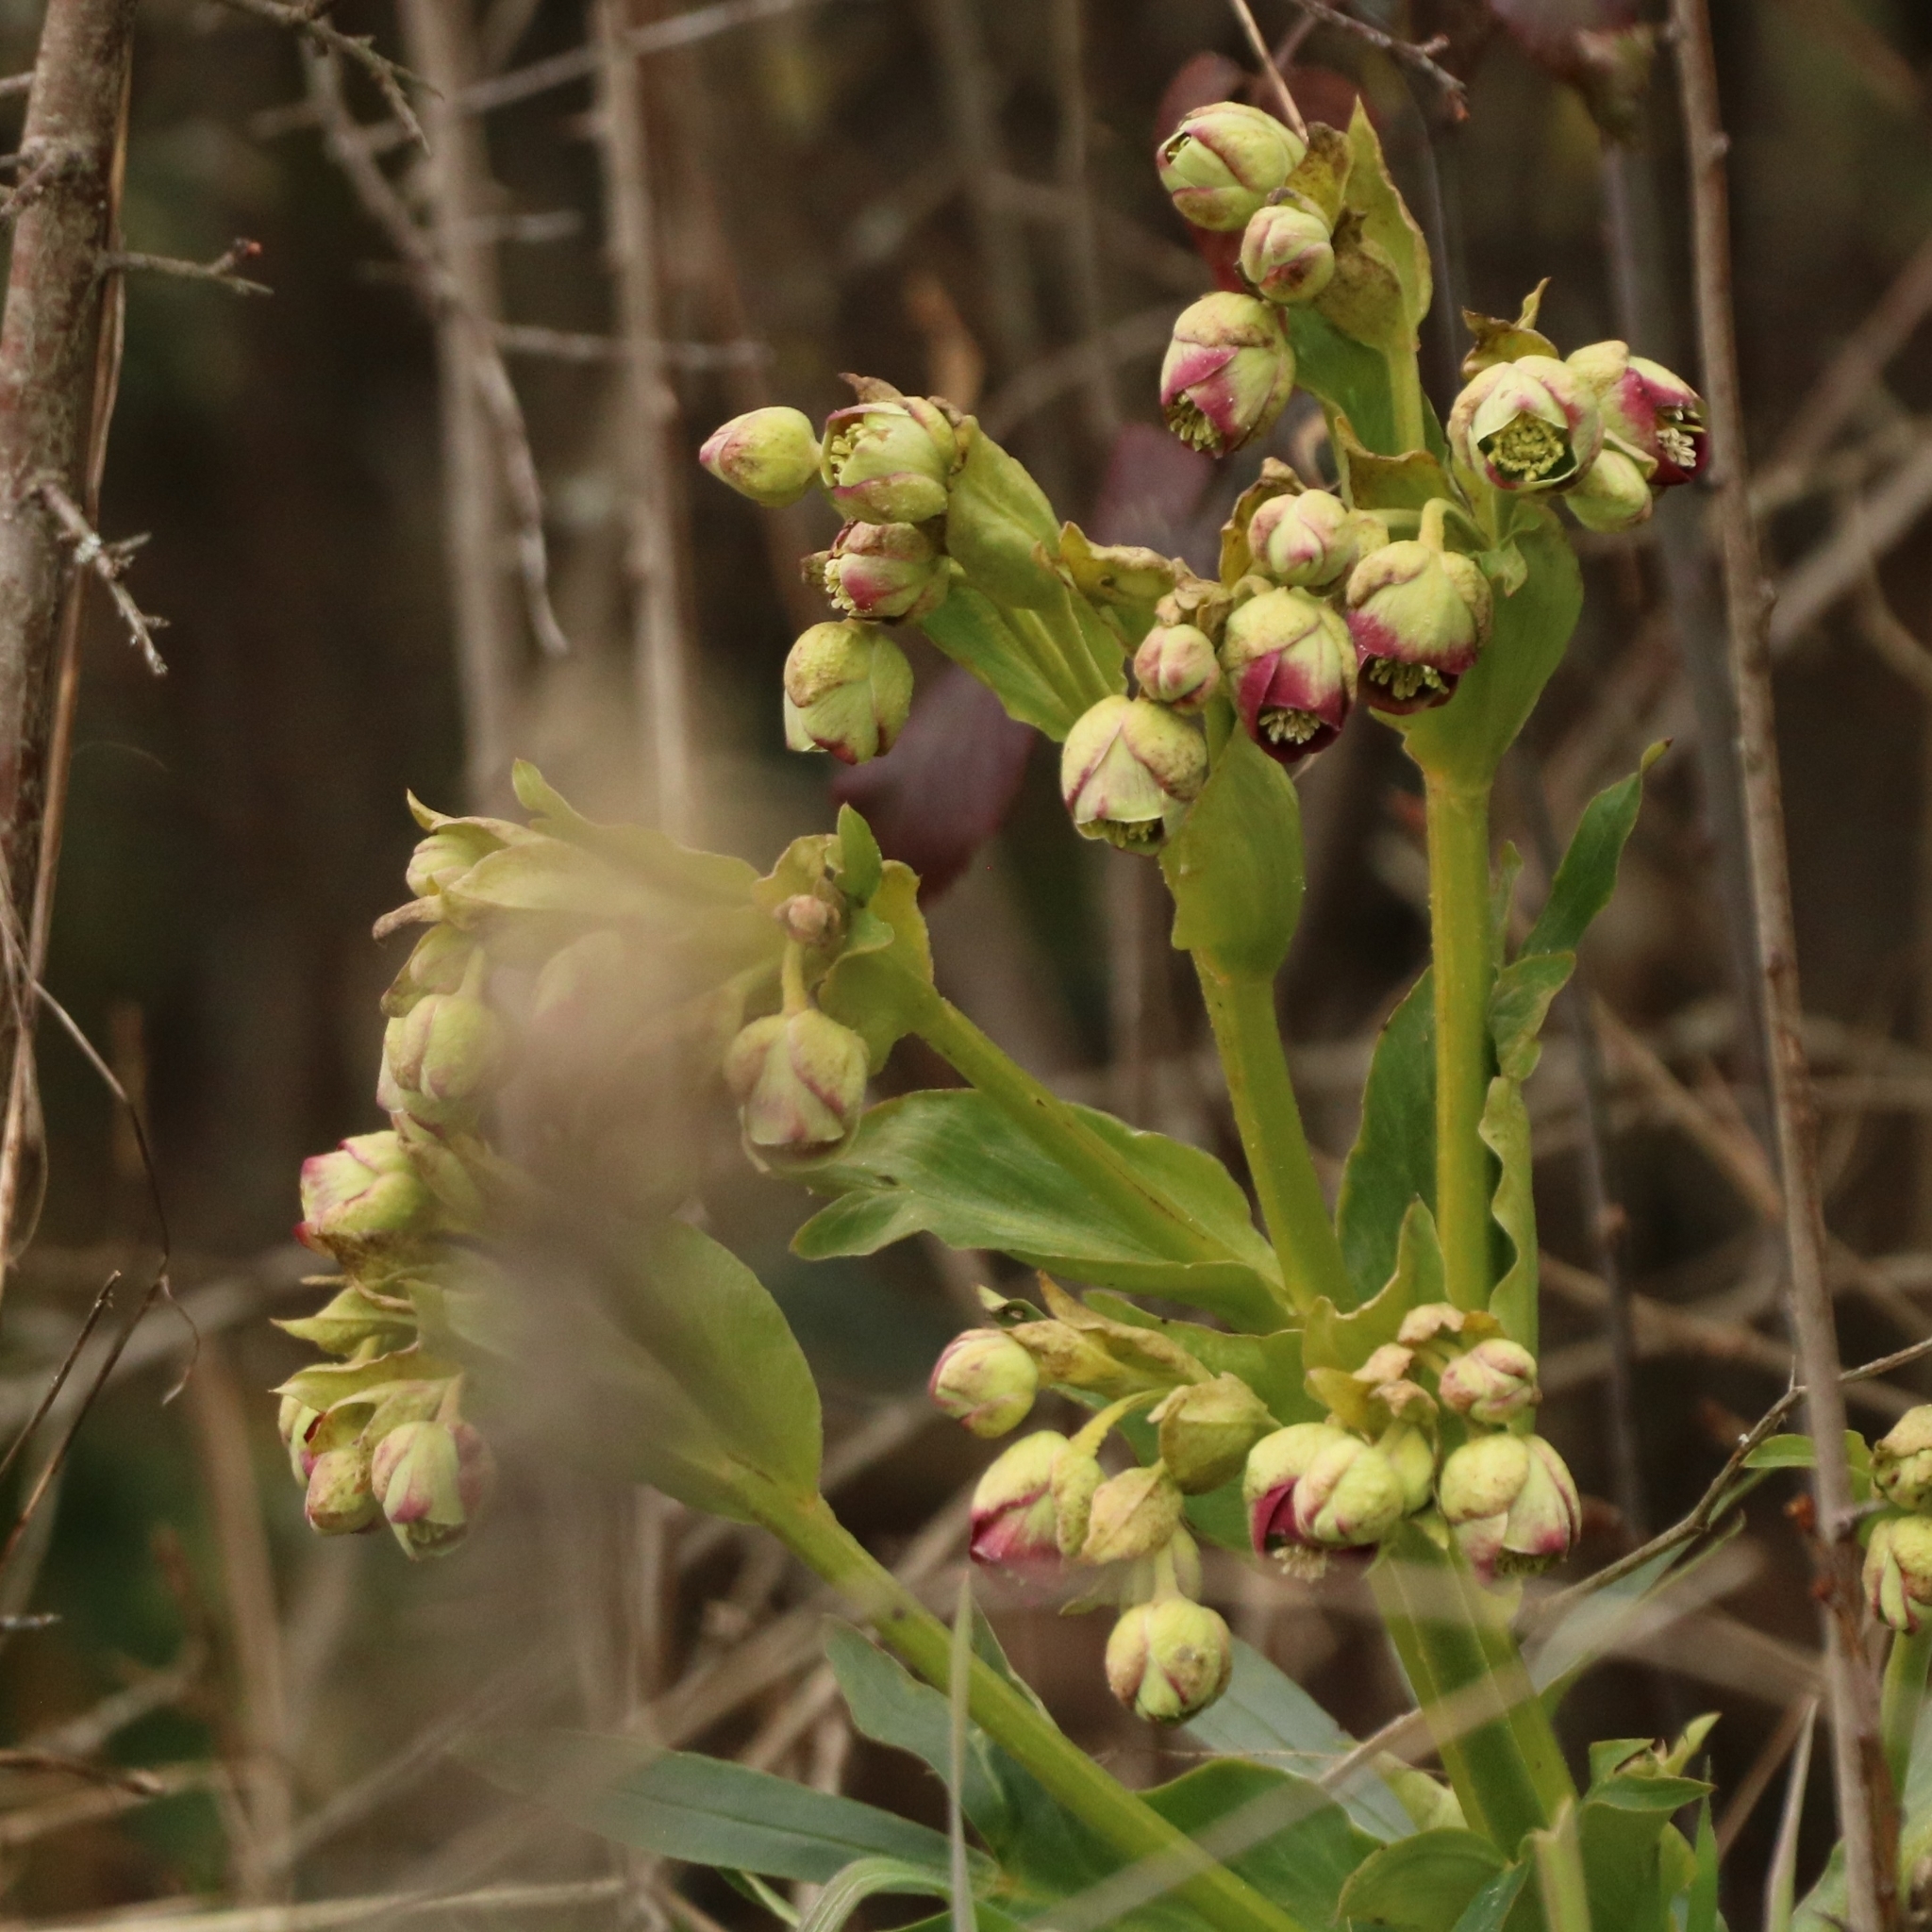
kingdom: Plantae
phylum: Tracheophyta
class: Magnoliopsida
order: Ranunculales
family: Ranunculaceae
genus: Helleborus
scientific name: Helleborus foetidus
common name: Stinking hellebore
